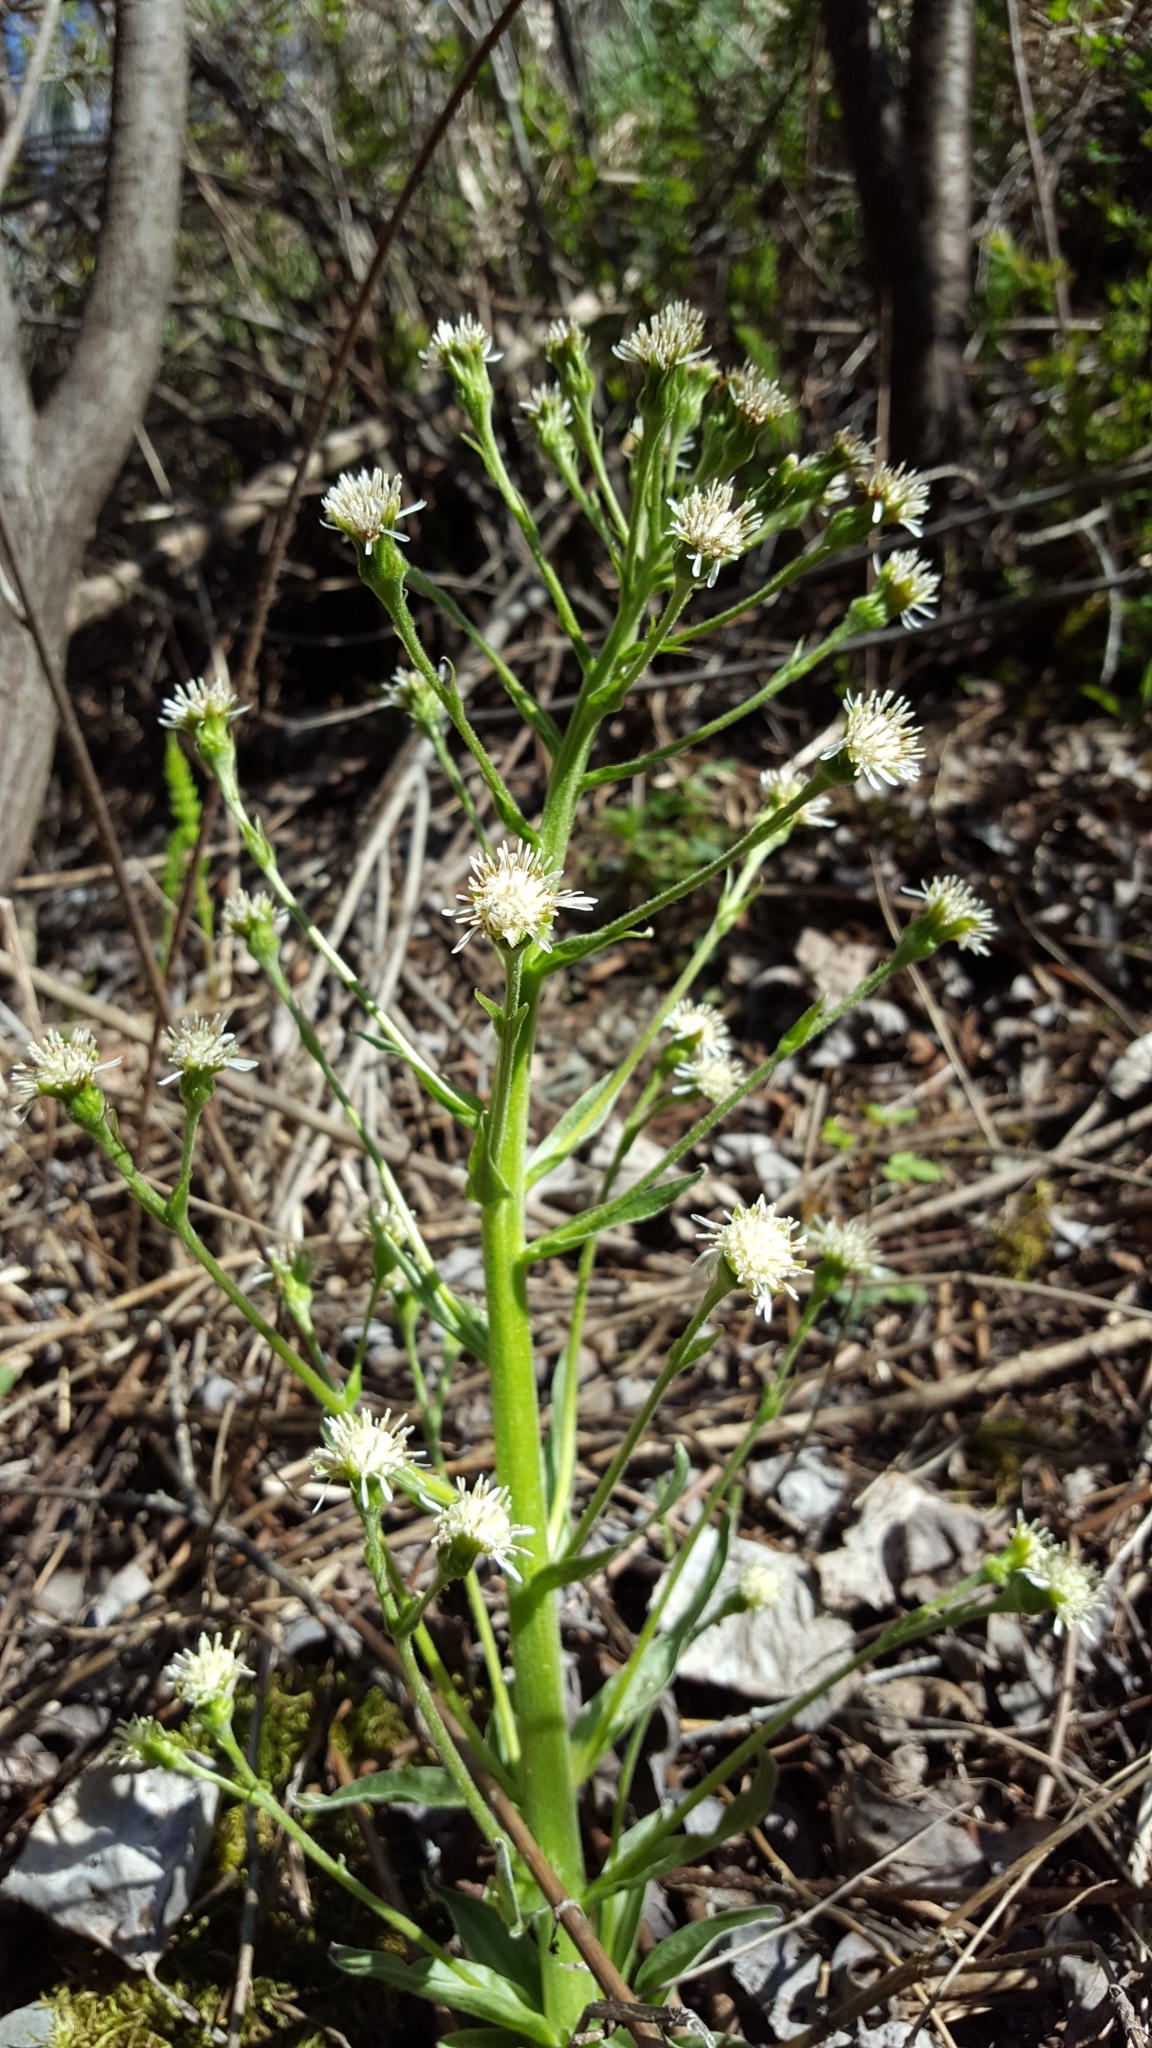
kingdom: Plantae
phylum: Tracheophyta
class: Magnoliopsida
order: Asterales
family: Asteraceae
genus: Petasites
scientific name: Petasites frigidus
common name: Arctic butterbur
